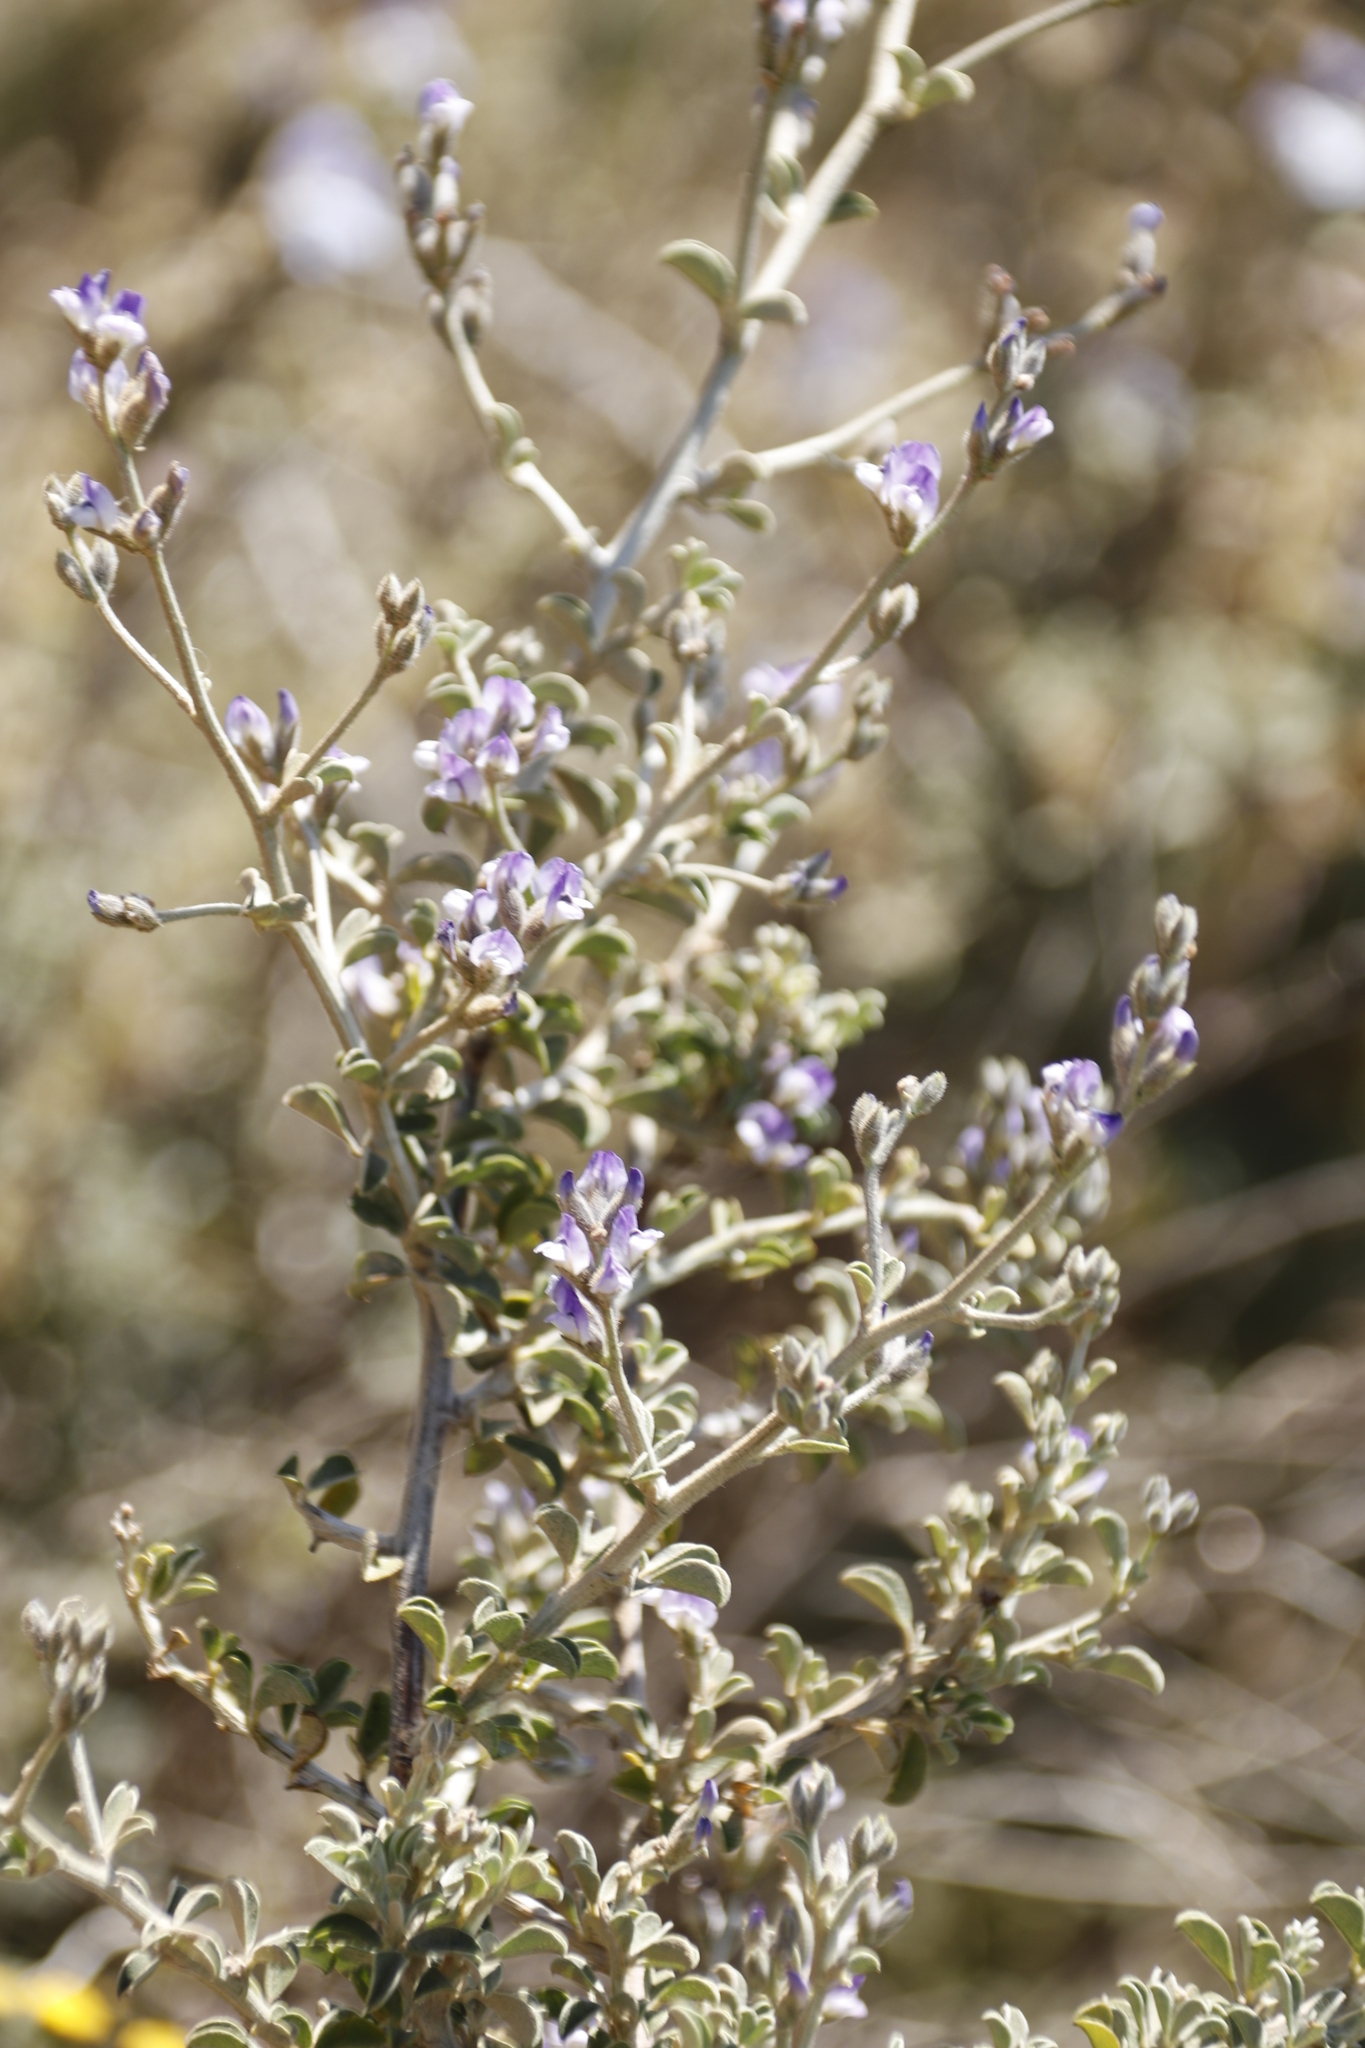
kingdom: Plantae
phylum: Tracheophyta
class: Magnoliopsida
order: Fabales
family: Fabaceae
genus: Psoralea
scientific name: Psoralea hirta
